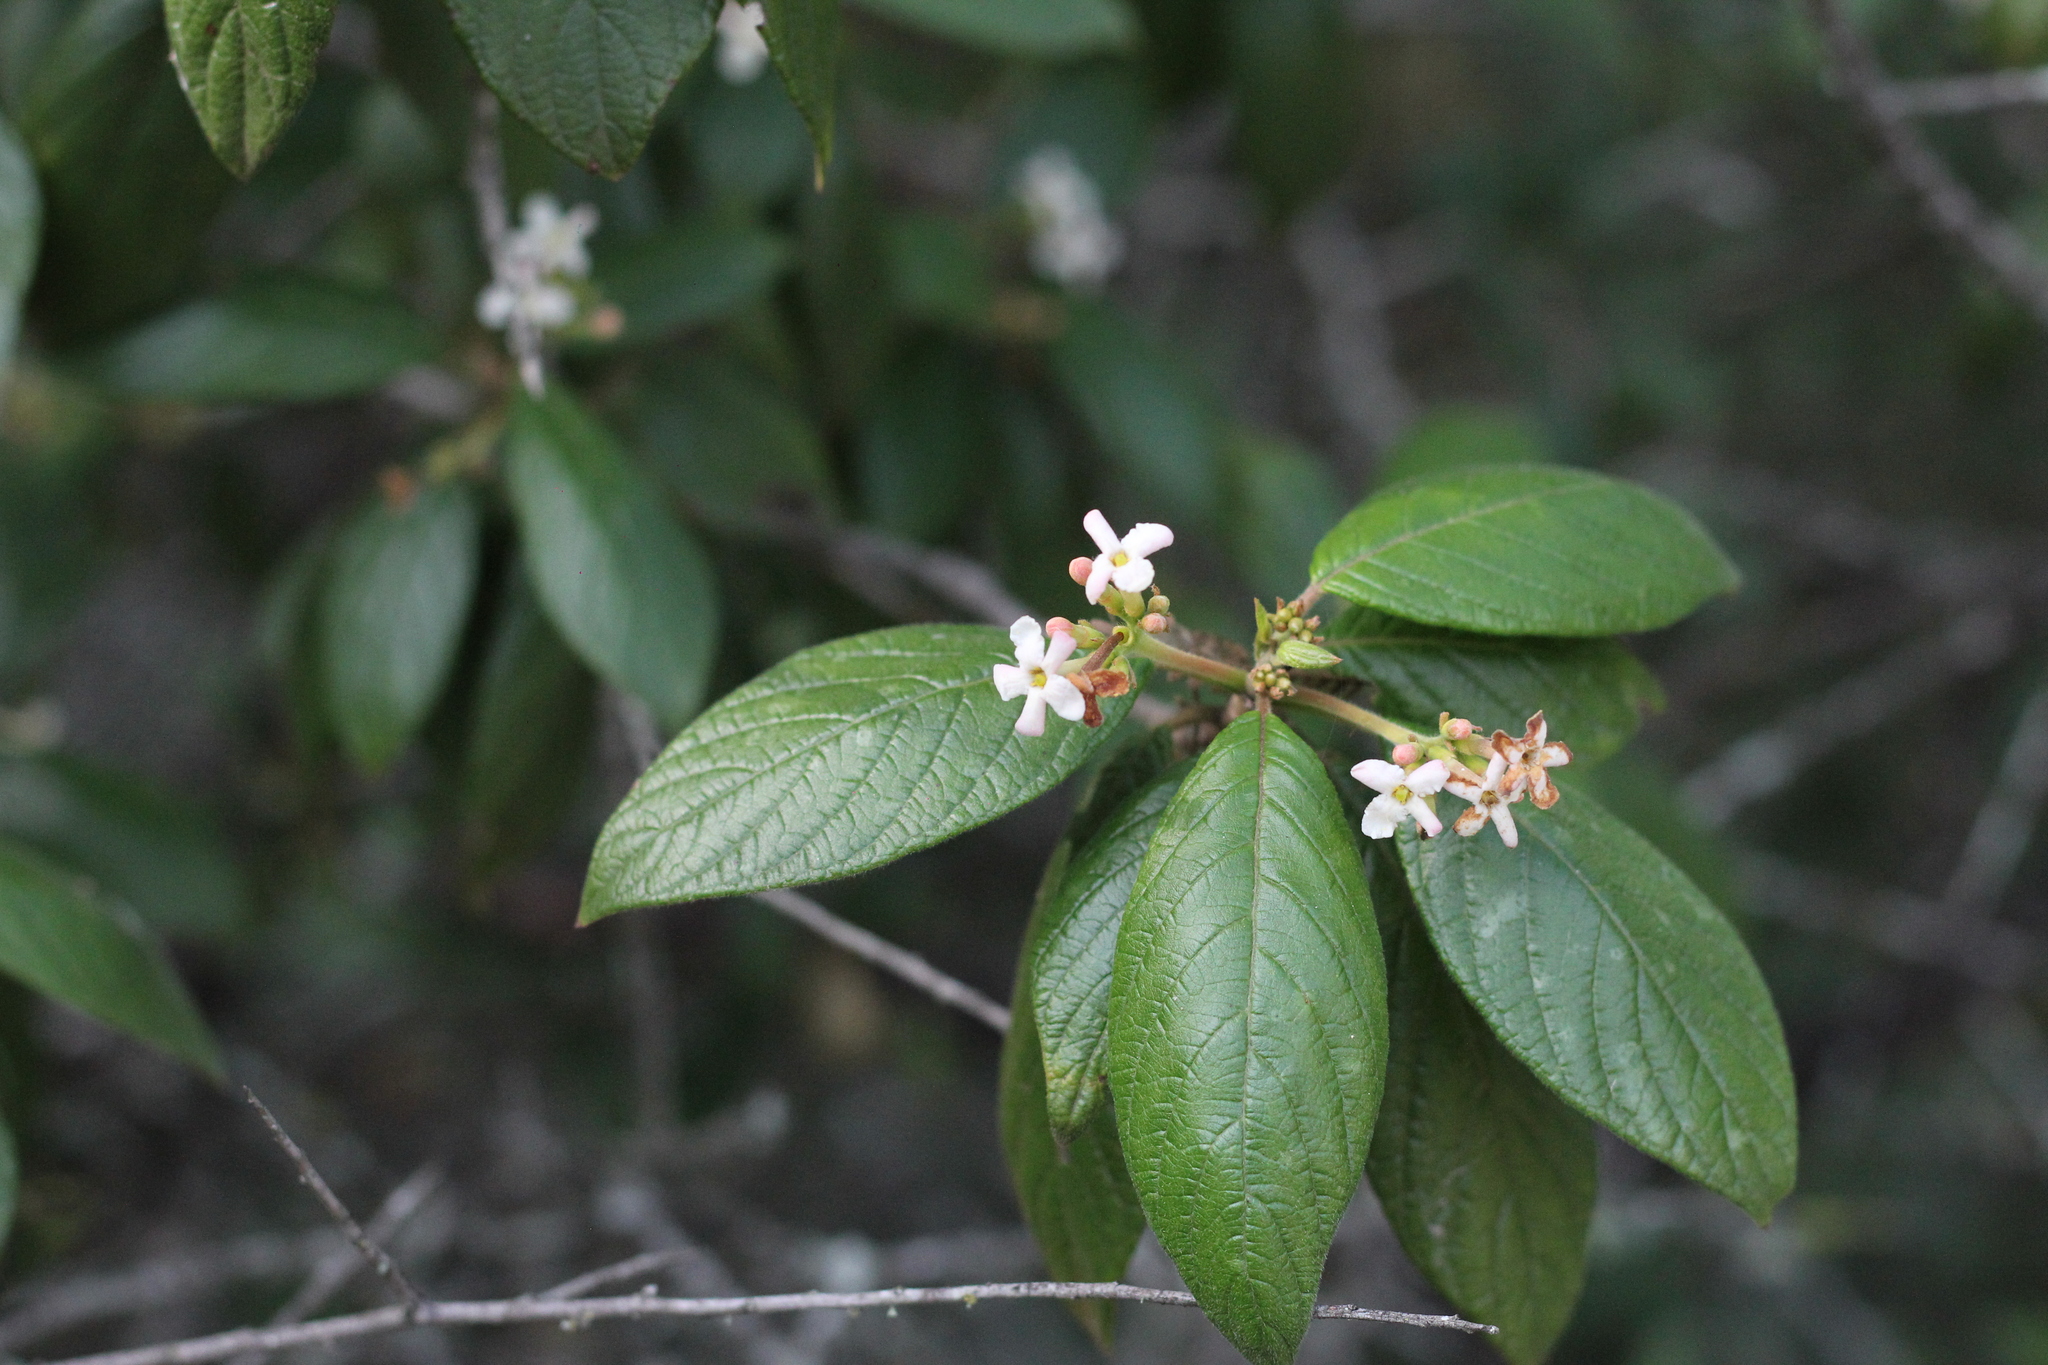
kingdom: Plantae
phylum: Tracheophyta
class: Magnoliopsida
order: Gentianales
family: Rubiaceae
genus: Guettarda
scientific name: Guettarda uruguensis
